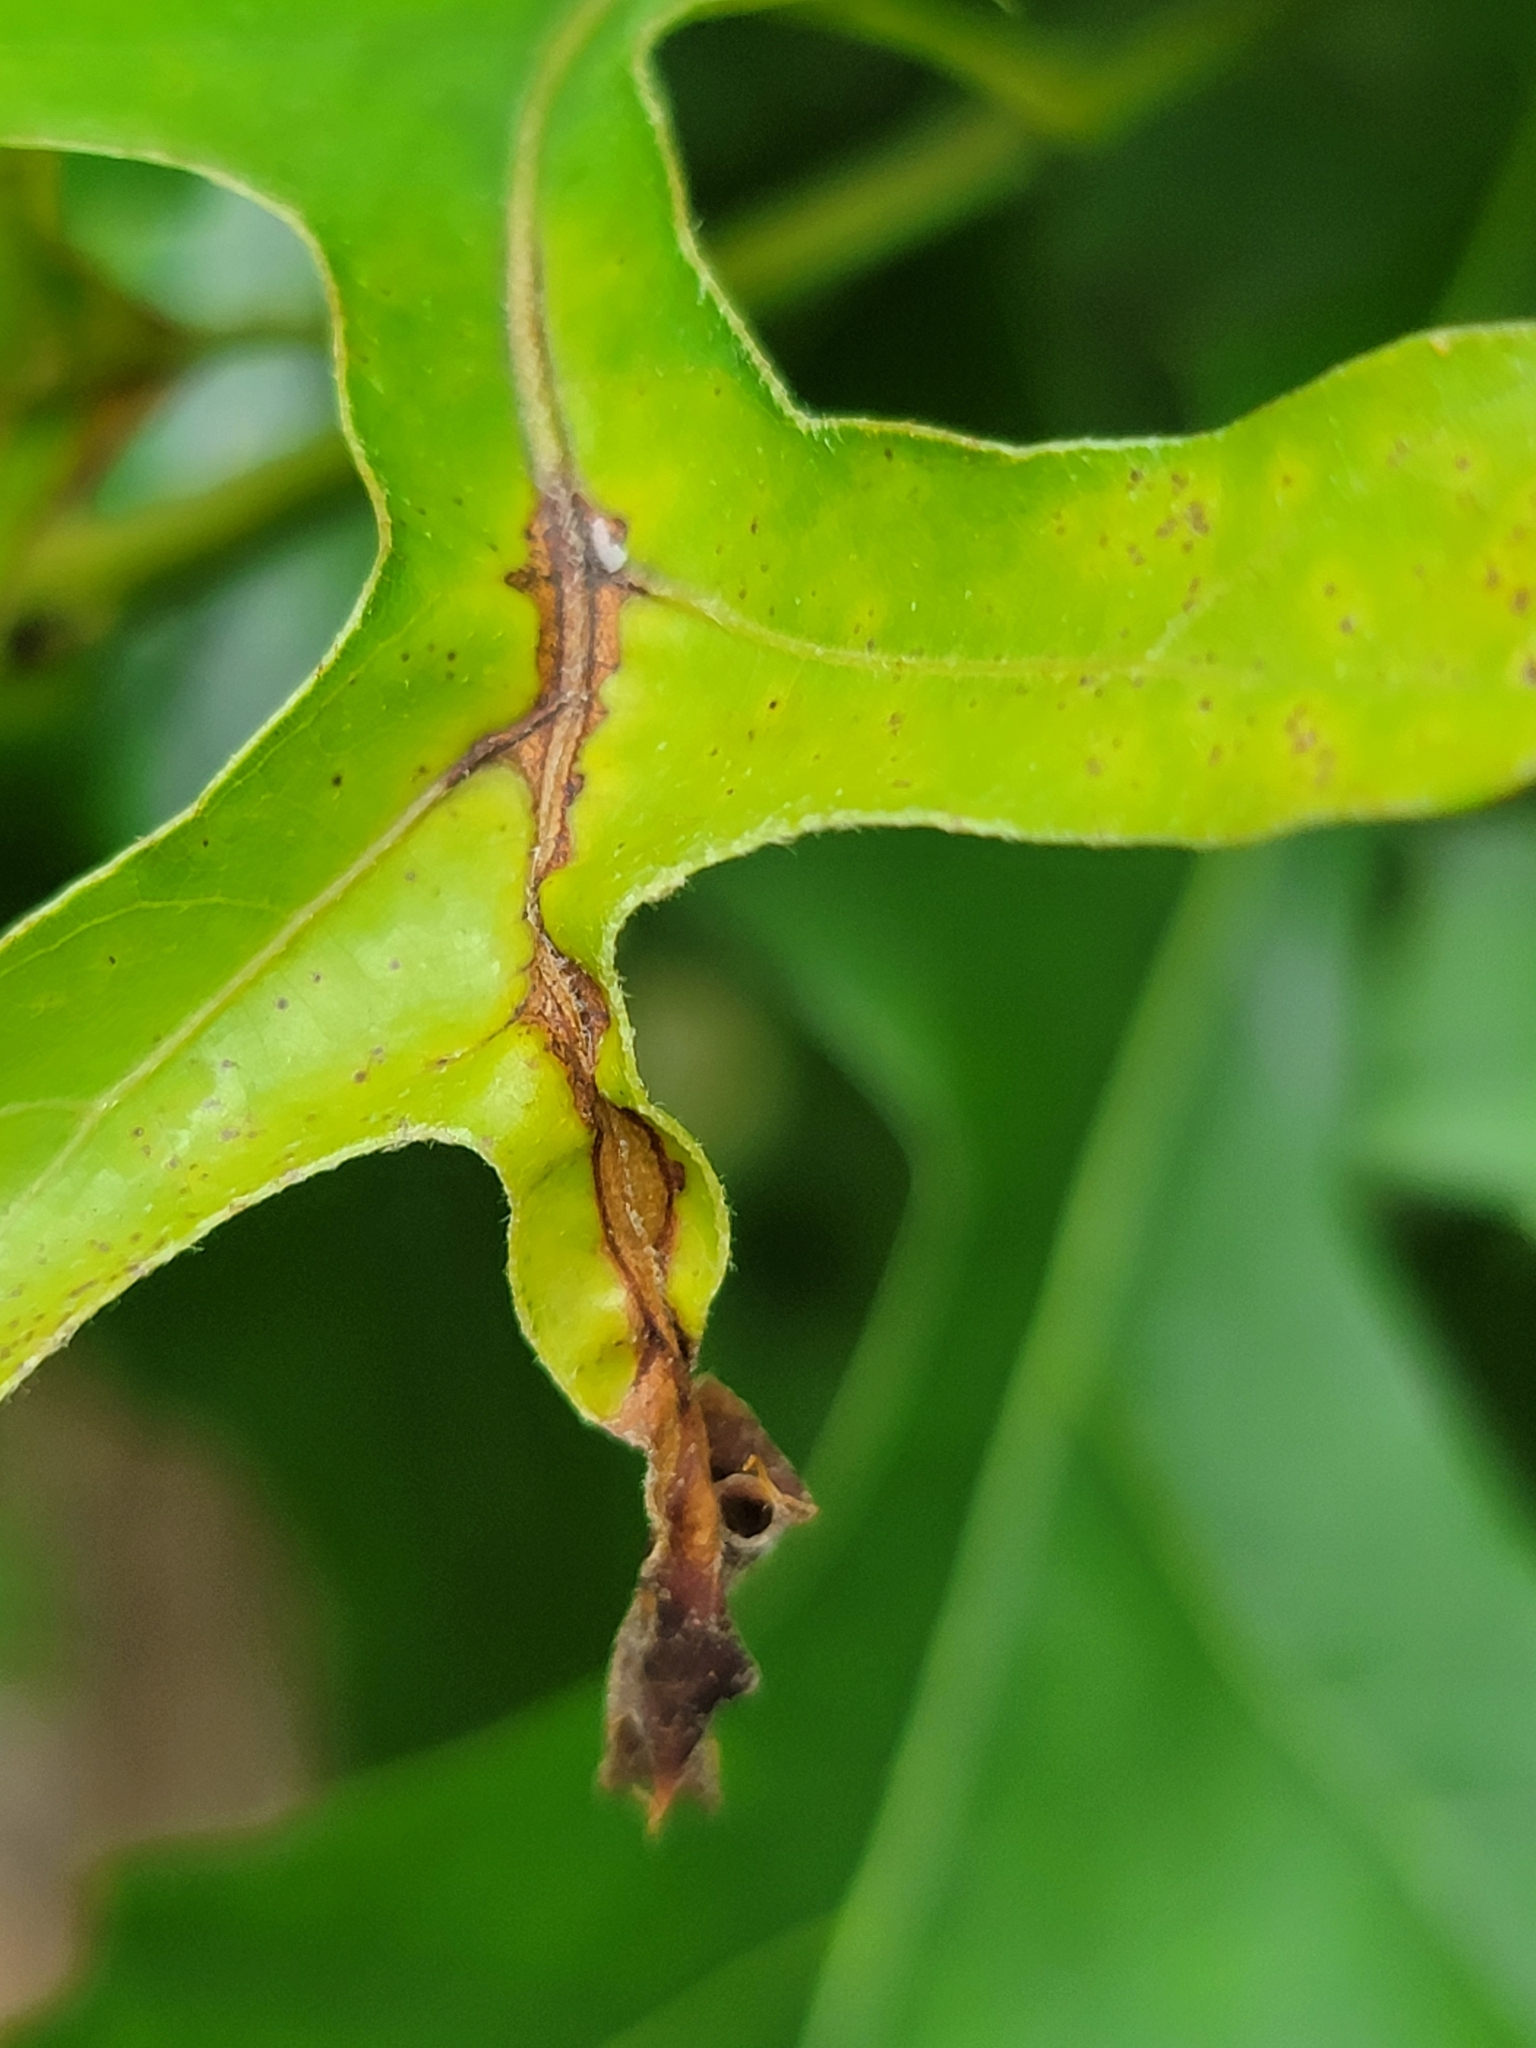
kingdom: Animalia
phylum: Arthropoda
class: Insecta
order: Lepidoptera
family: Gracillariidae
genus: Neurobathra
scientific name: Neurobathra strigifinitella
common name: Finite-channeled leafminer moth
